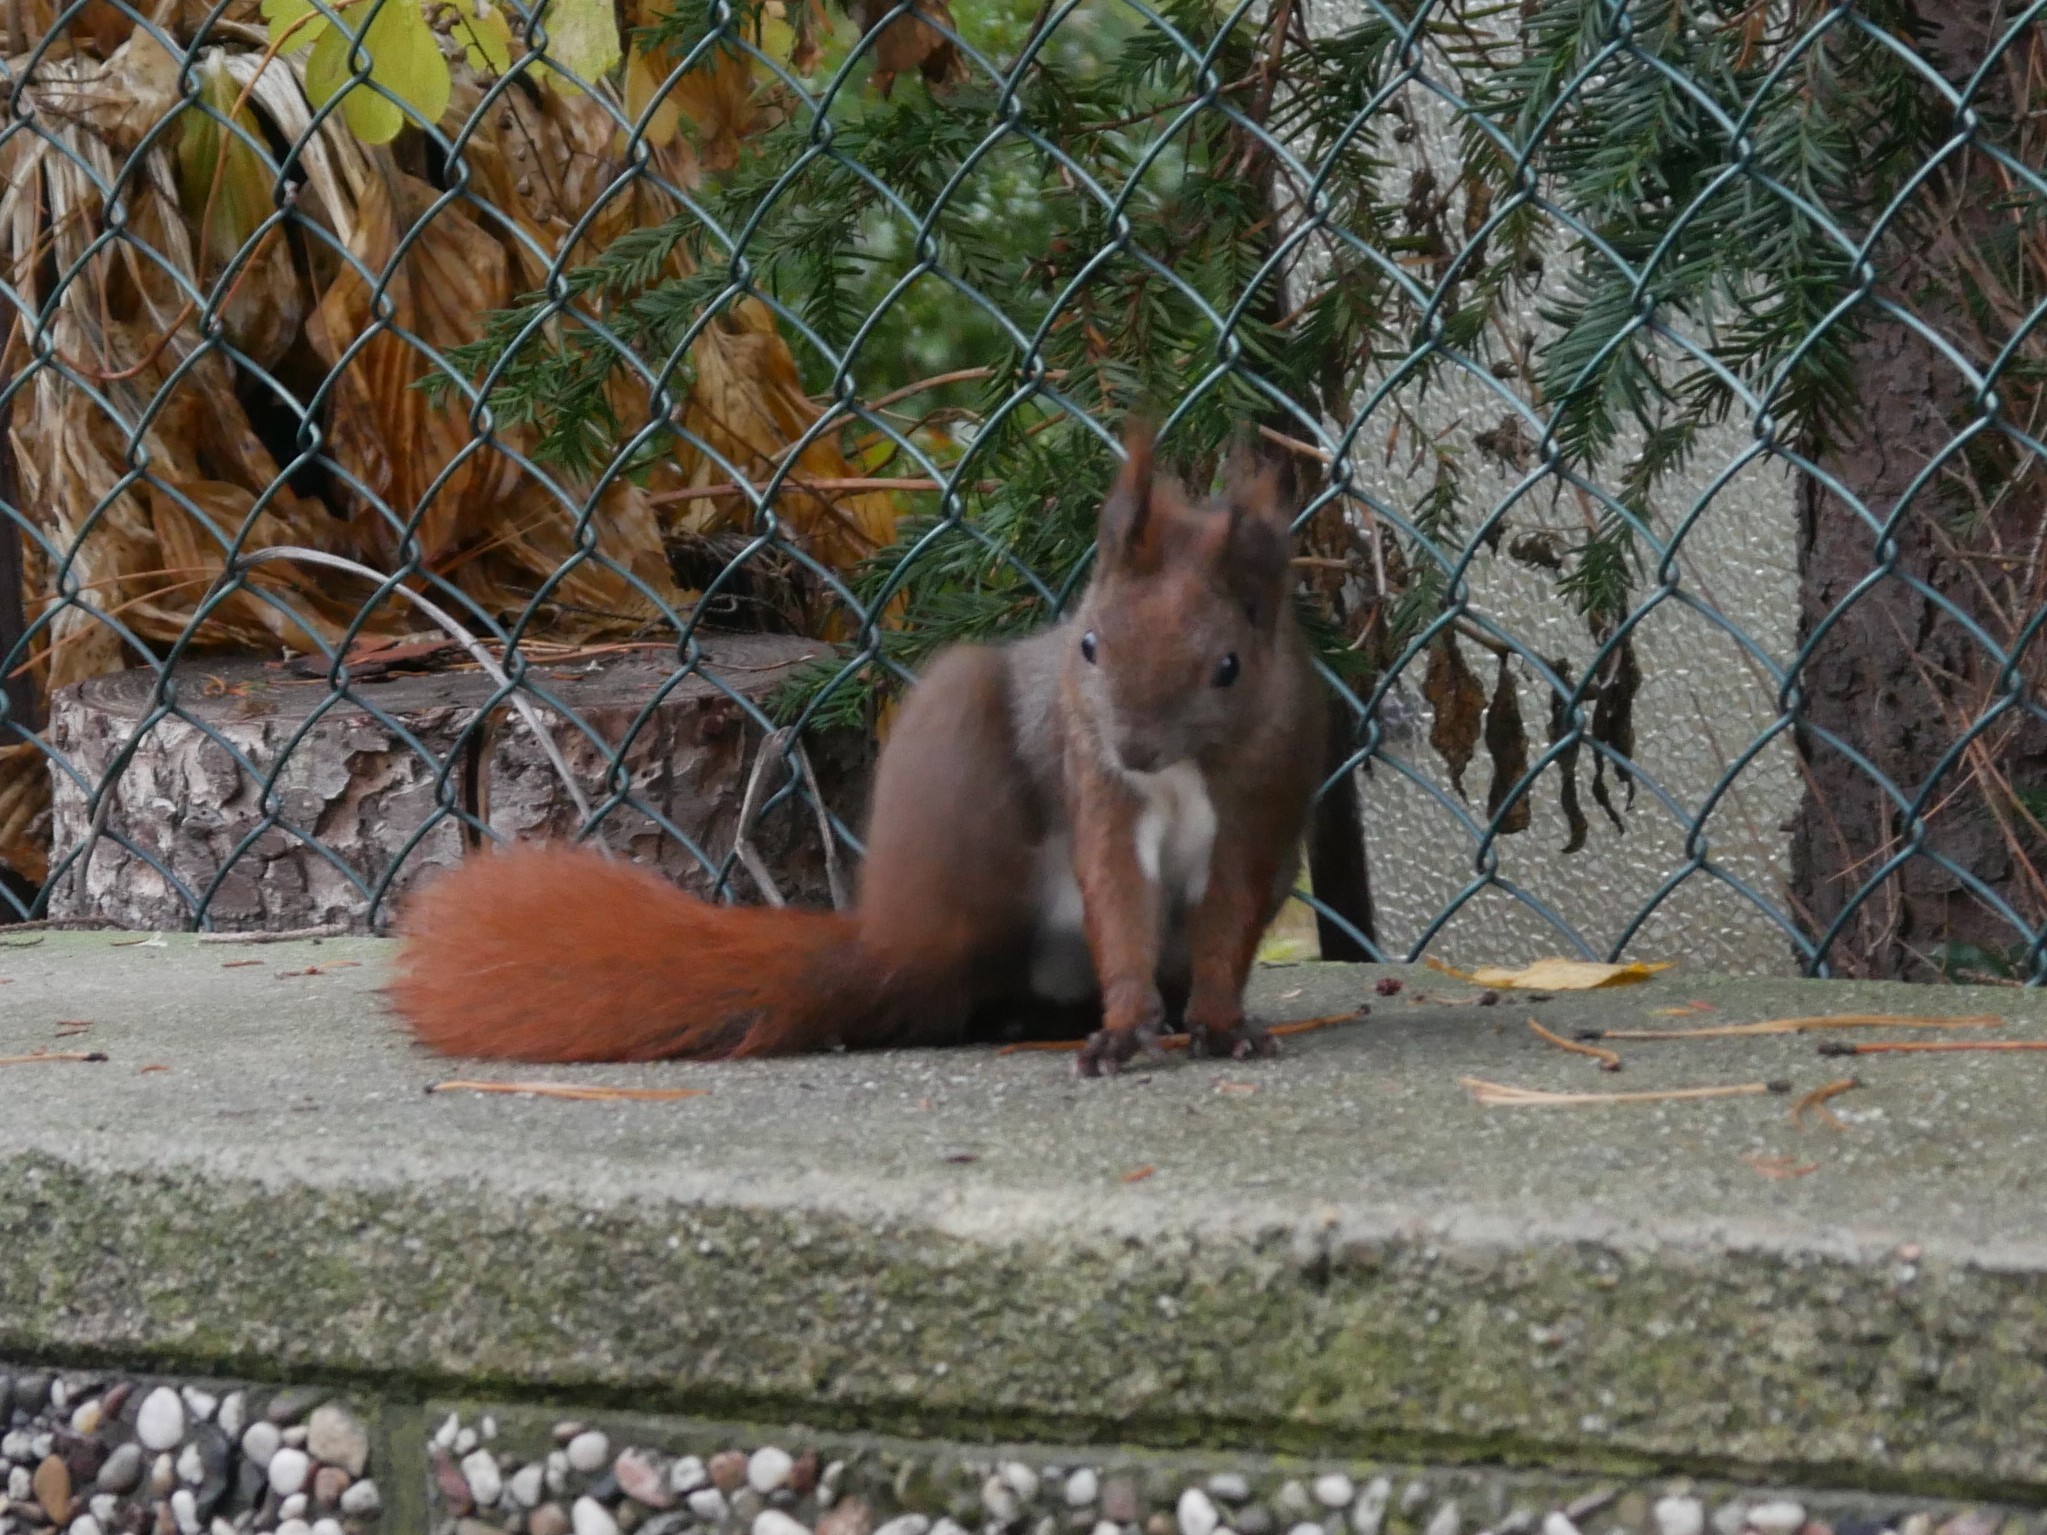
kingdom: Animalia
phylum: Chordata
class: Mammalia
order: Rodentia
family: Sciuridae
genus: Sciurus
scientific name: Sciurus vulgaris
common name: Eurasian red squirrel
